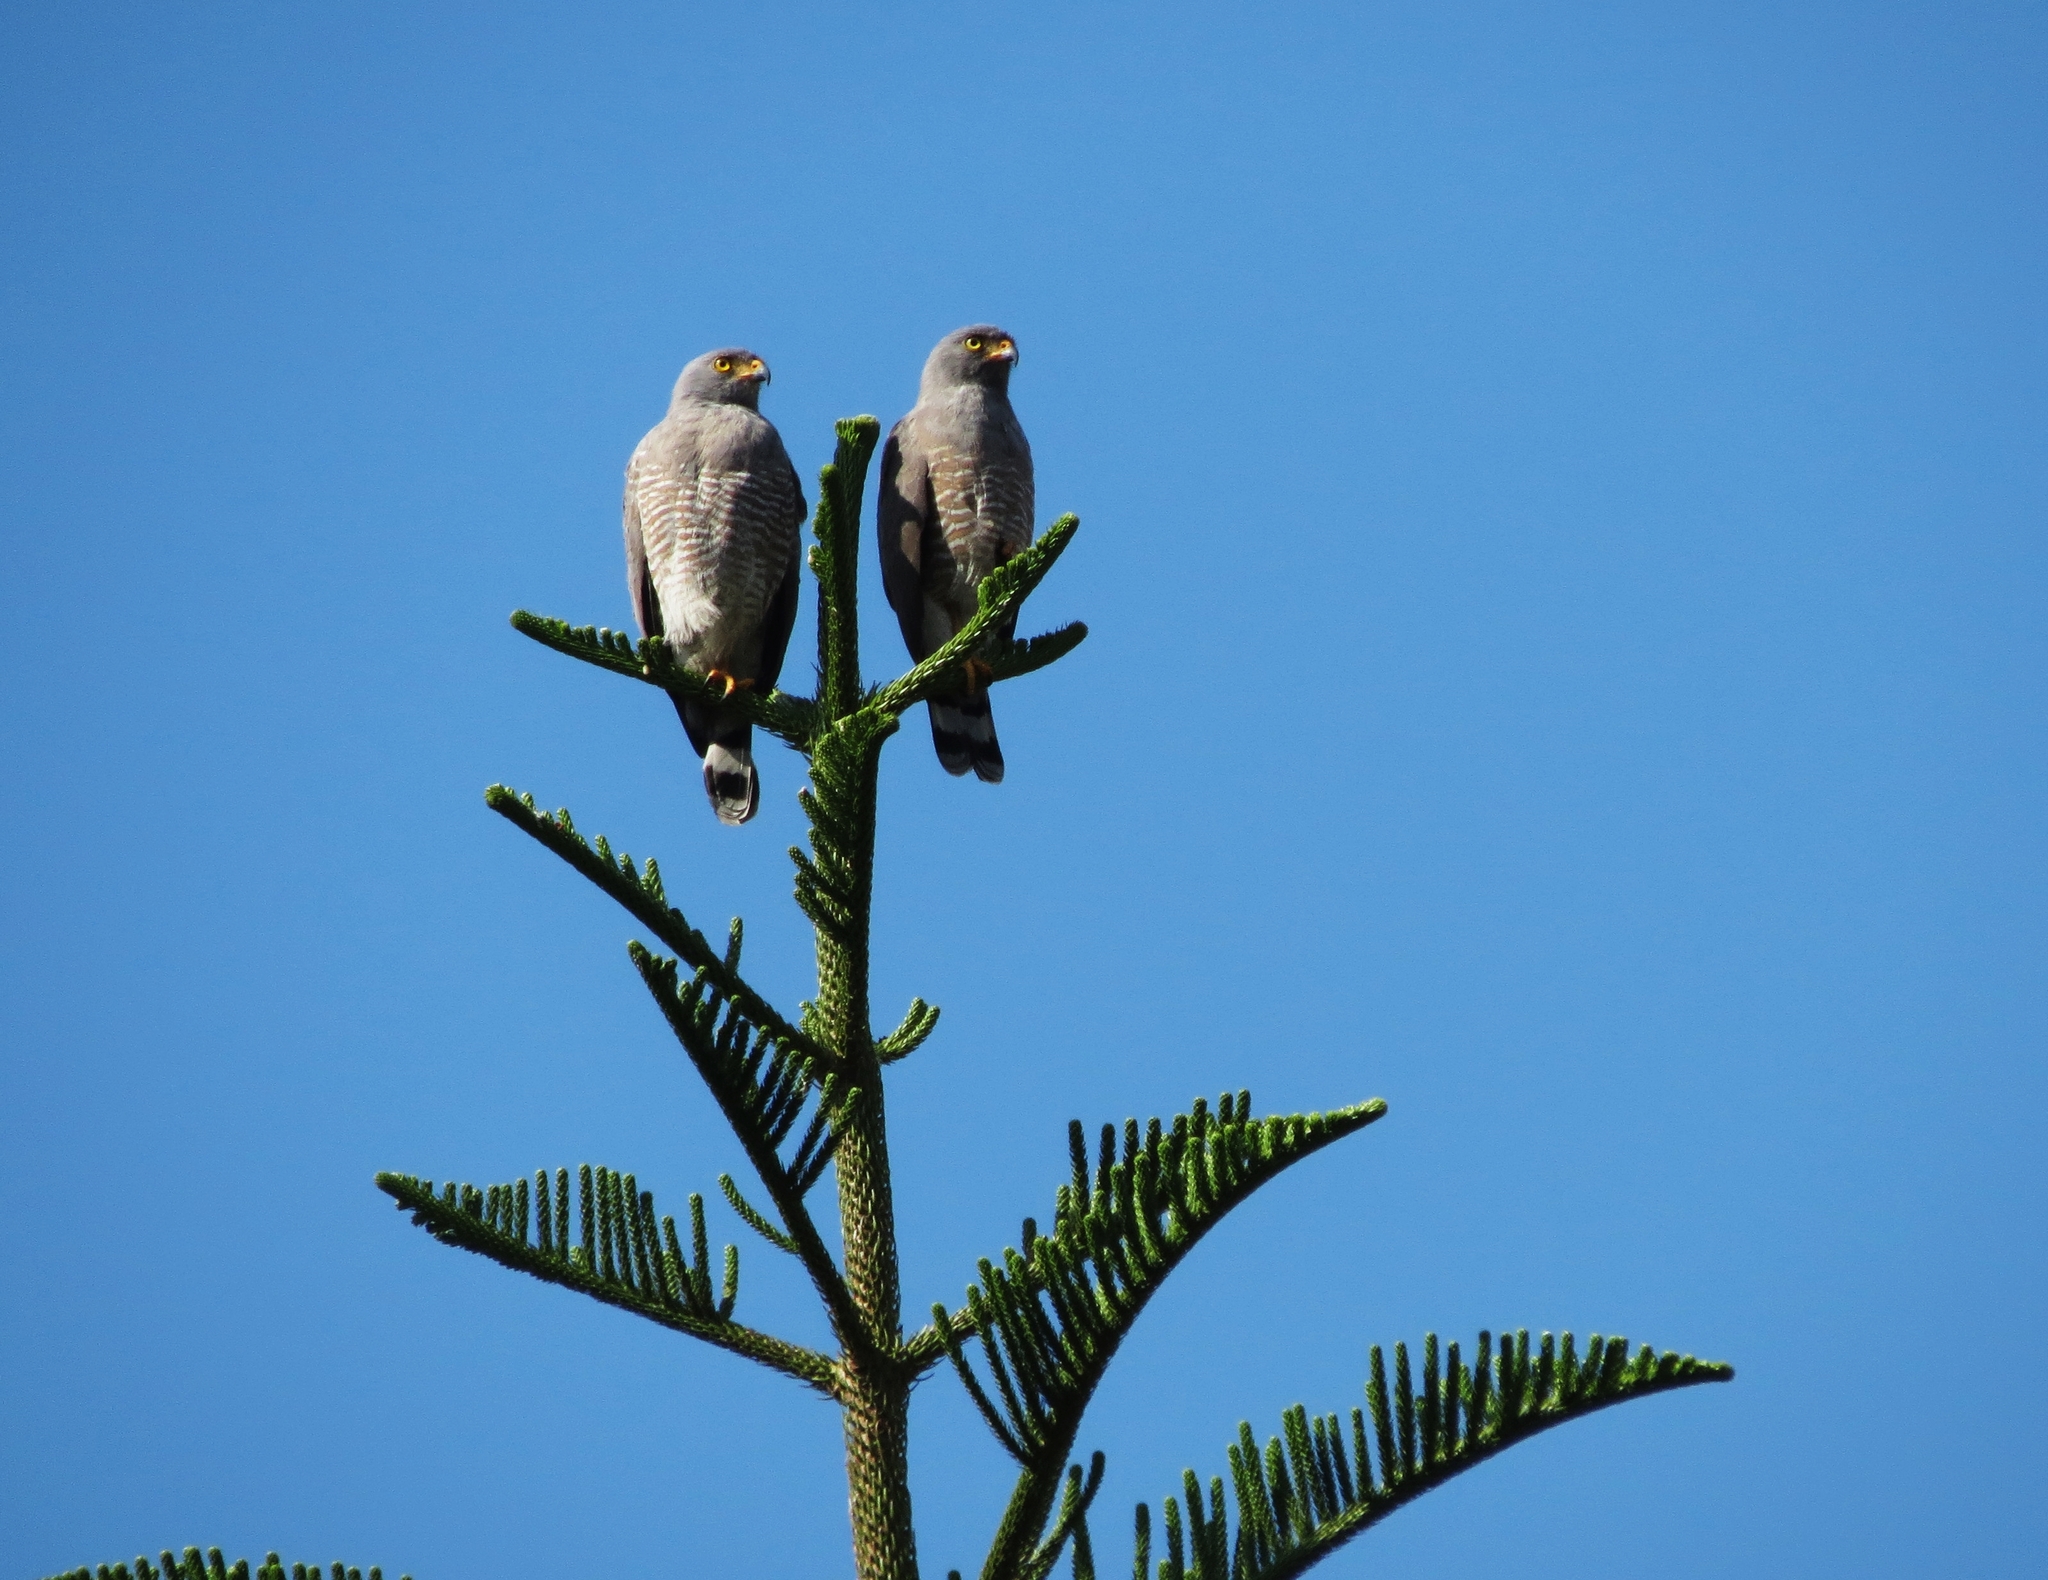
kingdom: Animalia
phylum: Chordata
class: Aves
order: Accipitriformes
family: Accipitridae
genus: Rupornis
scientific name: Rupornis magnirostris
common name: Roadside hawk
